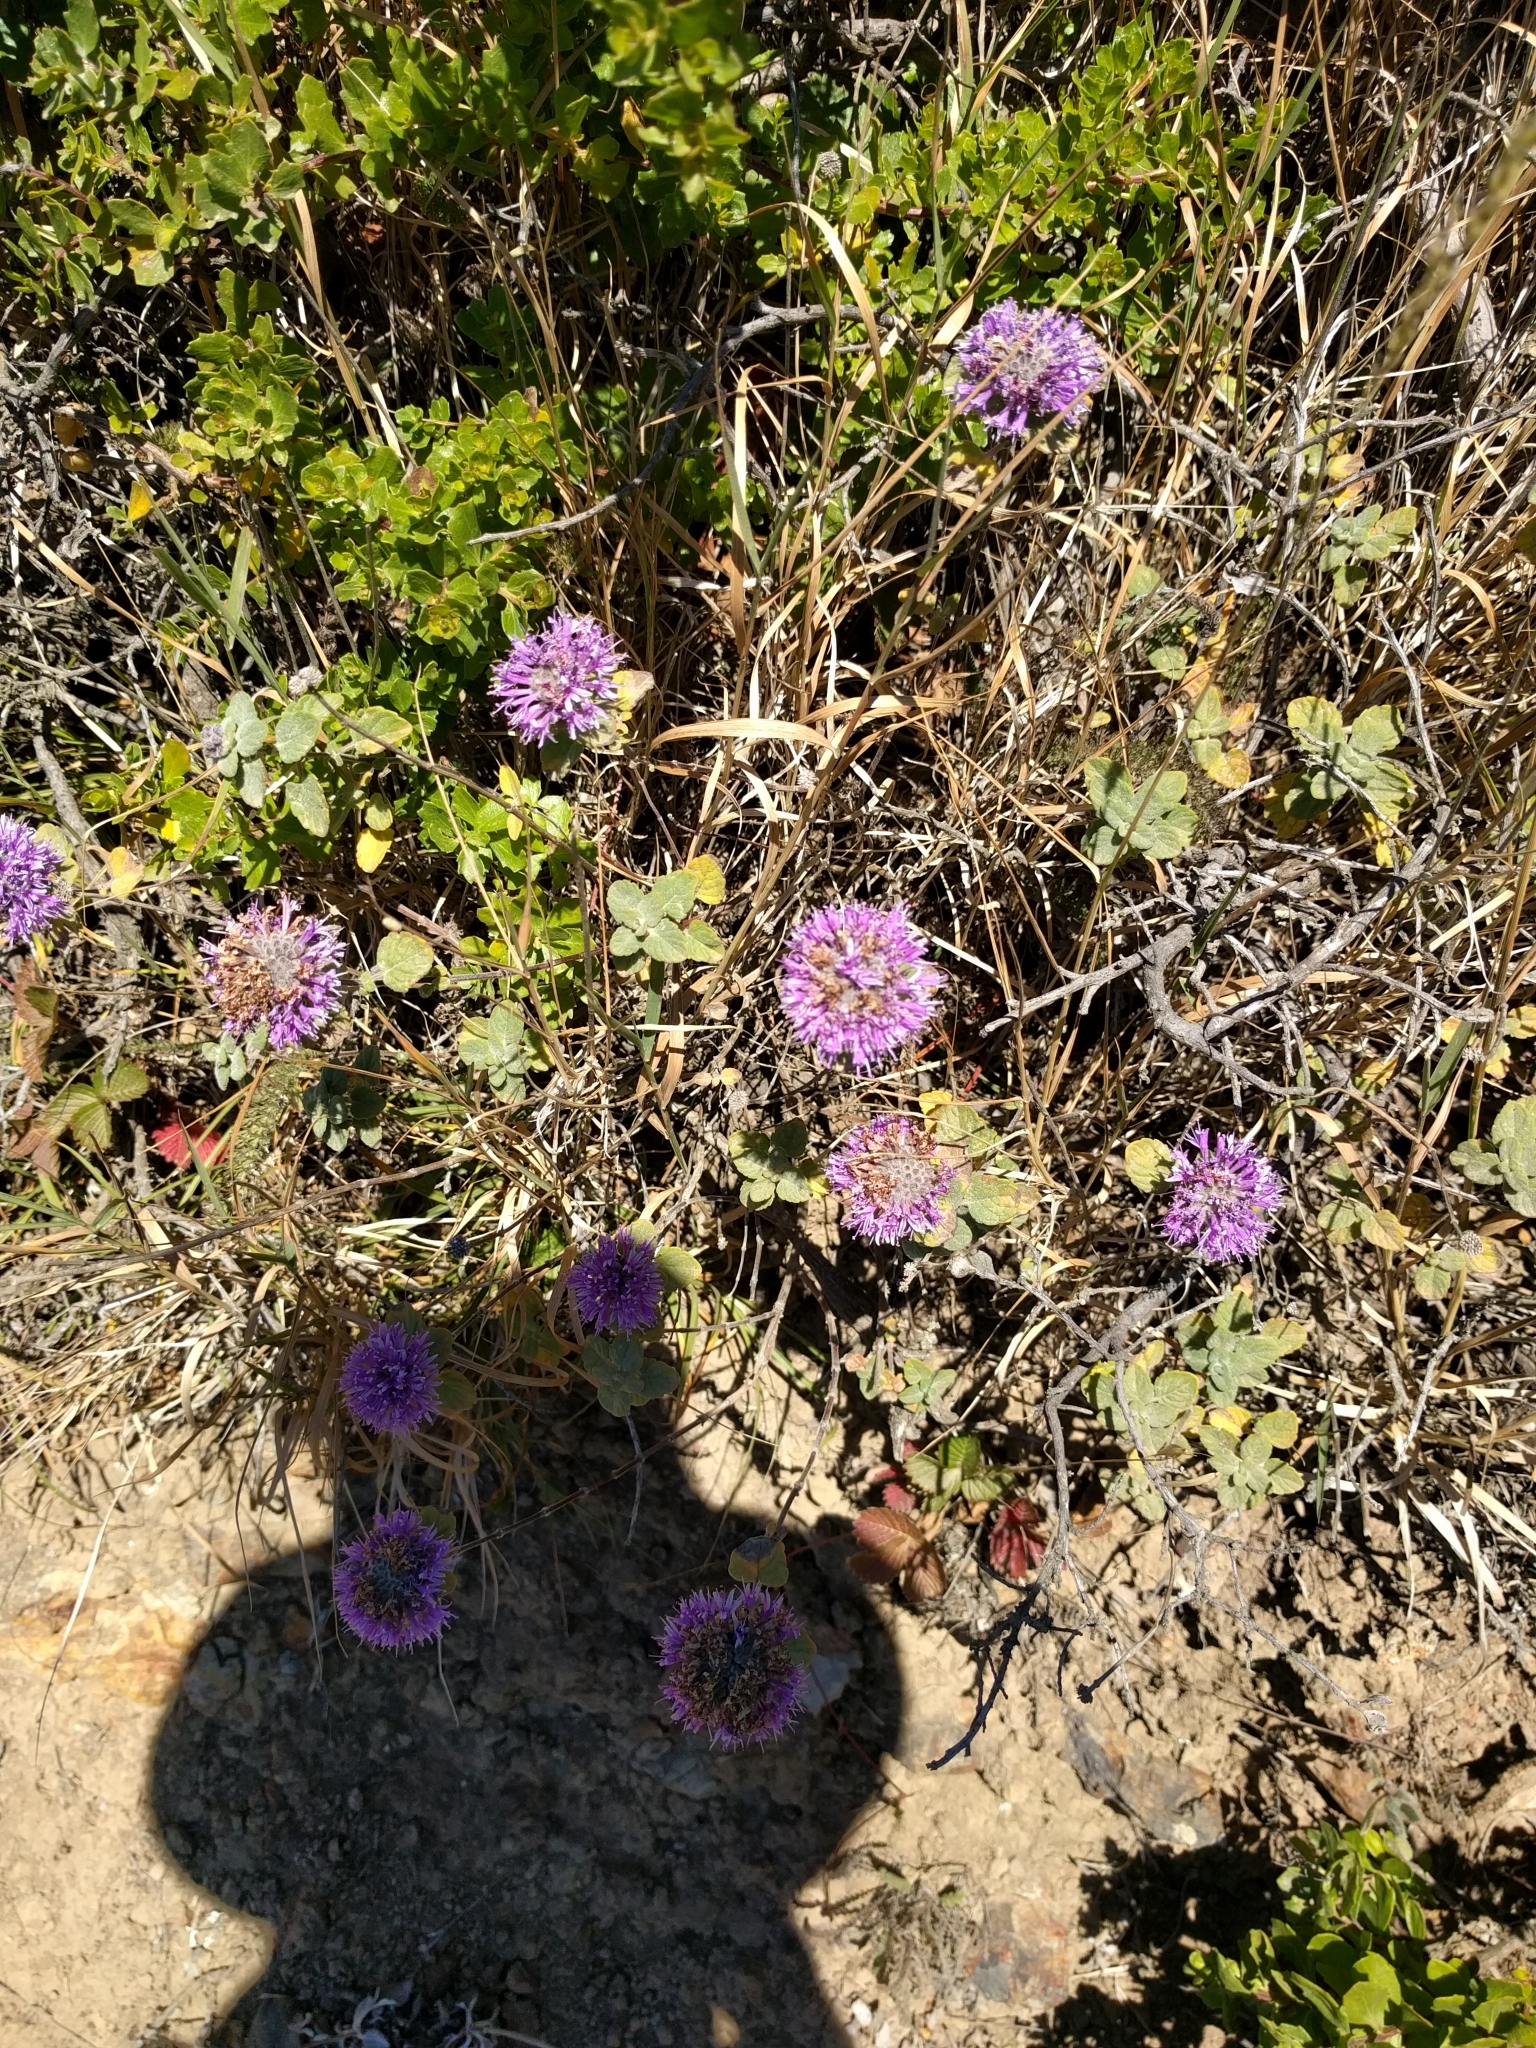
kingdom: Plantae
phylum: Tracheophyta
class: Magnoliopsida
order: Lamiales
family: Lamiaceae
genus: Monardella
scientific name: Monardella odoratissima
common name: Pacific monardella
